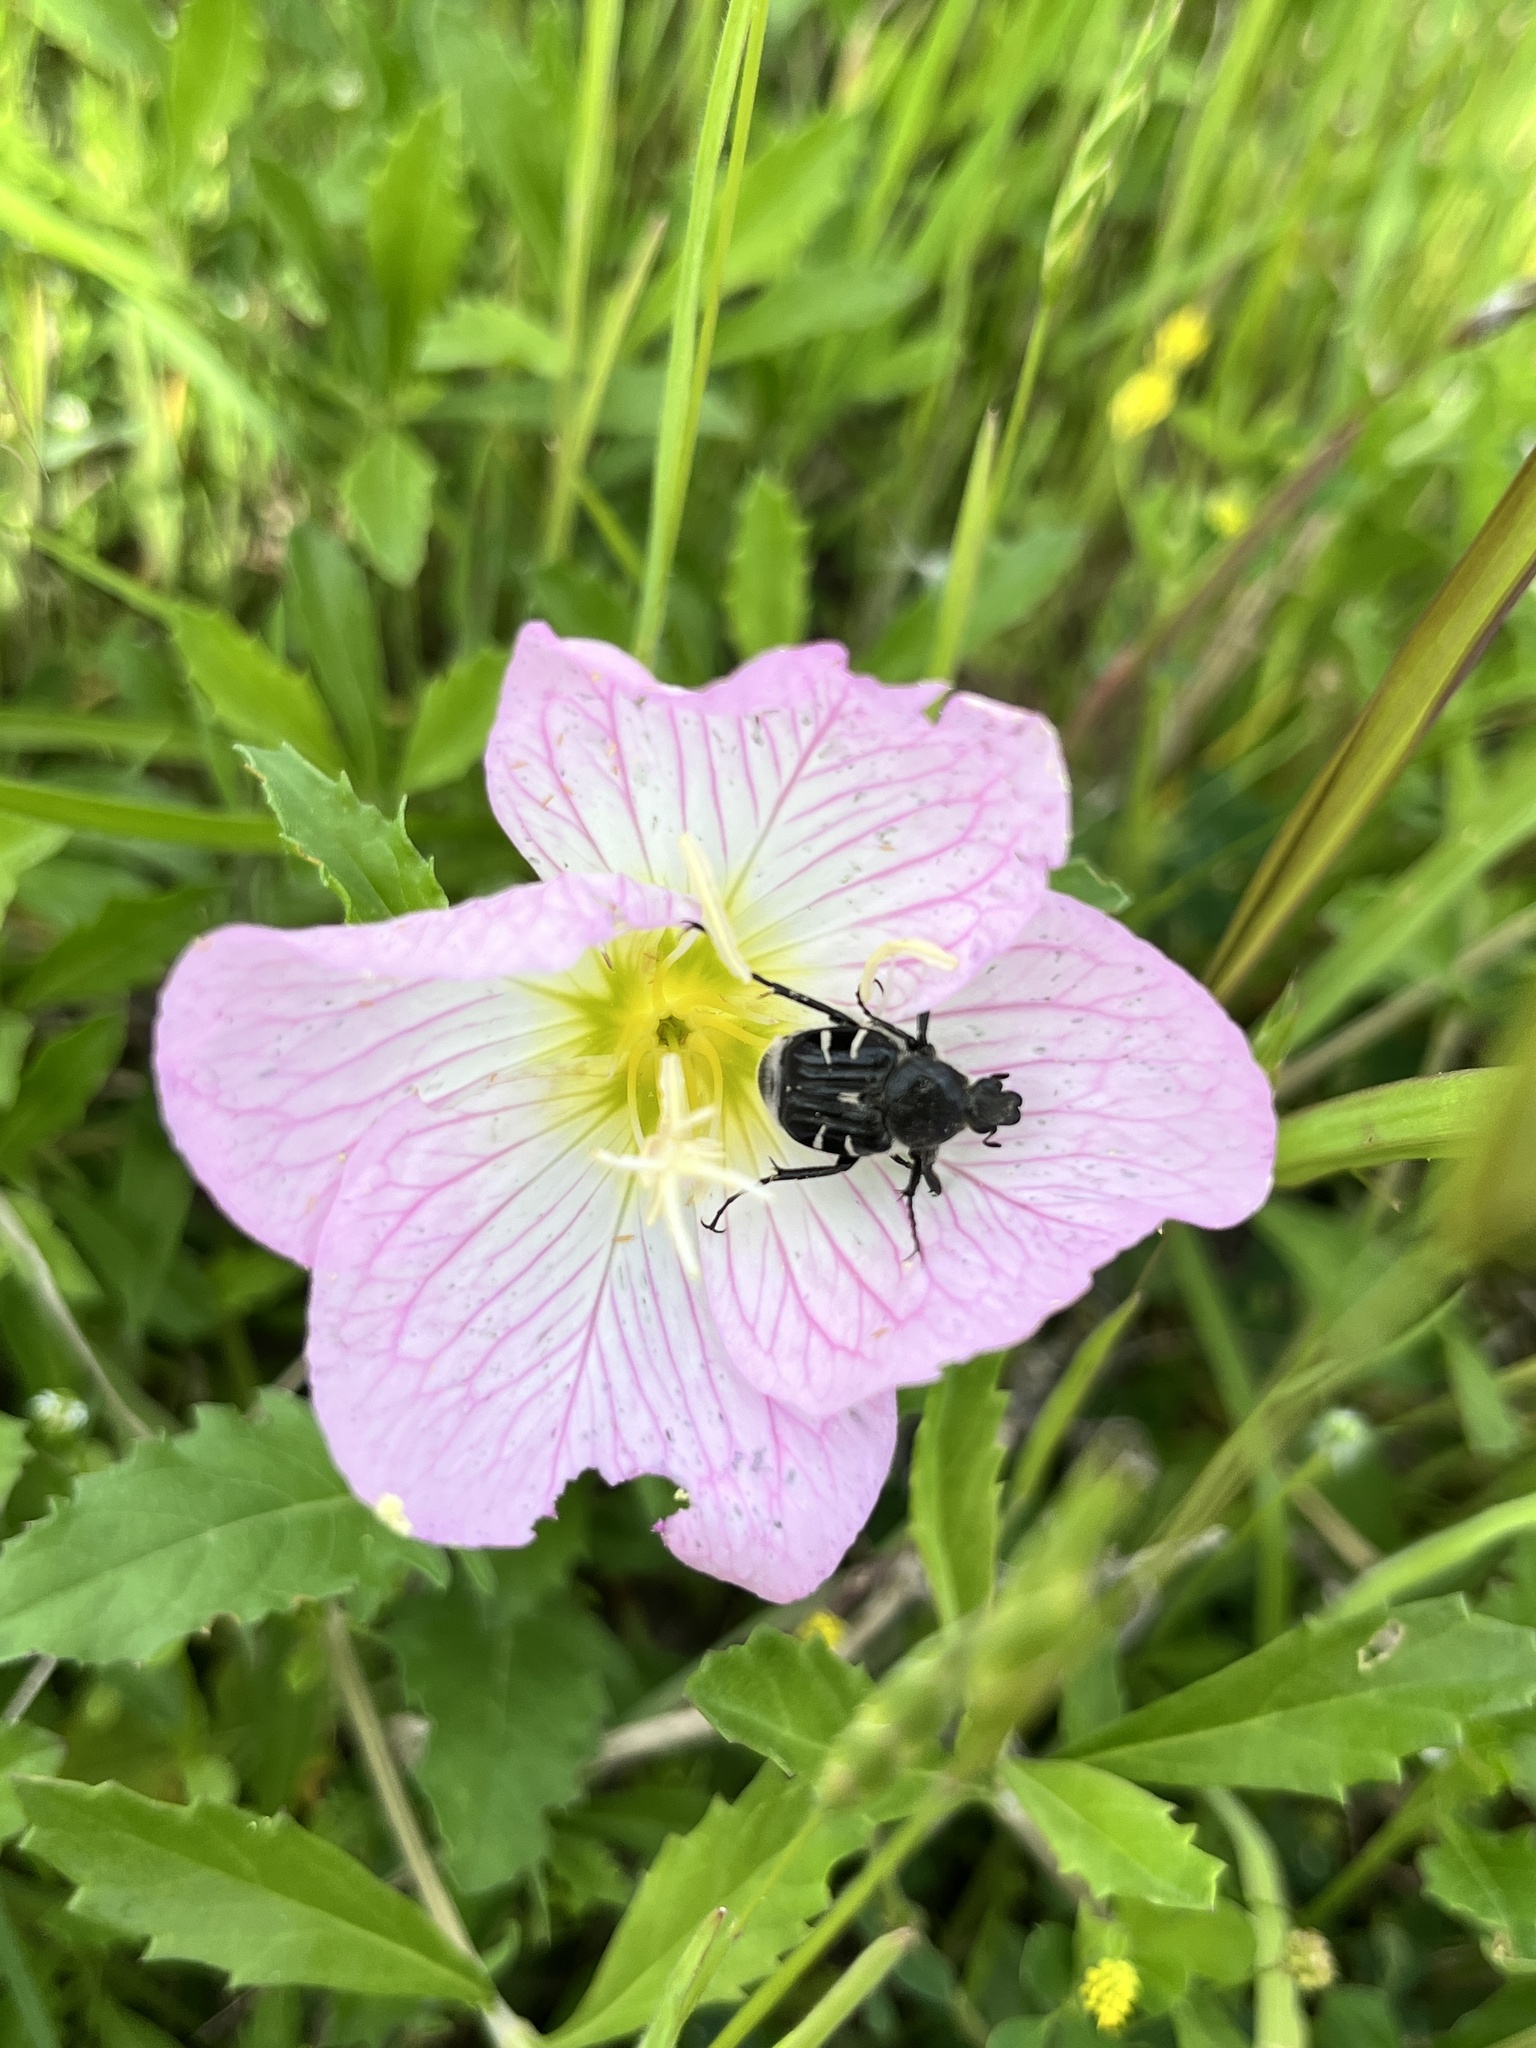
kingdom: Animalia
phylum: Arthropoda
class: Insecta
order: Coleoptera
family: Scarabaeidae
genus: Trichiotinus
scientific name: Trichiotinus texanus
